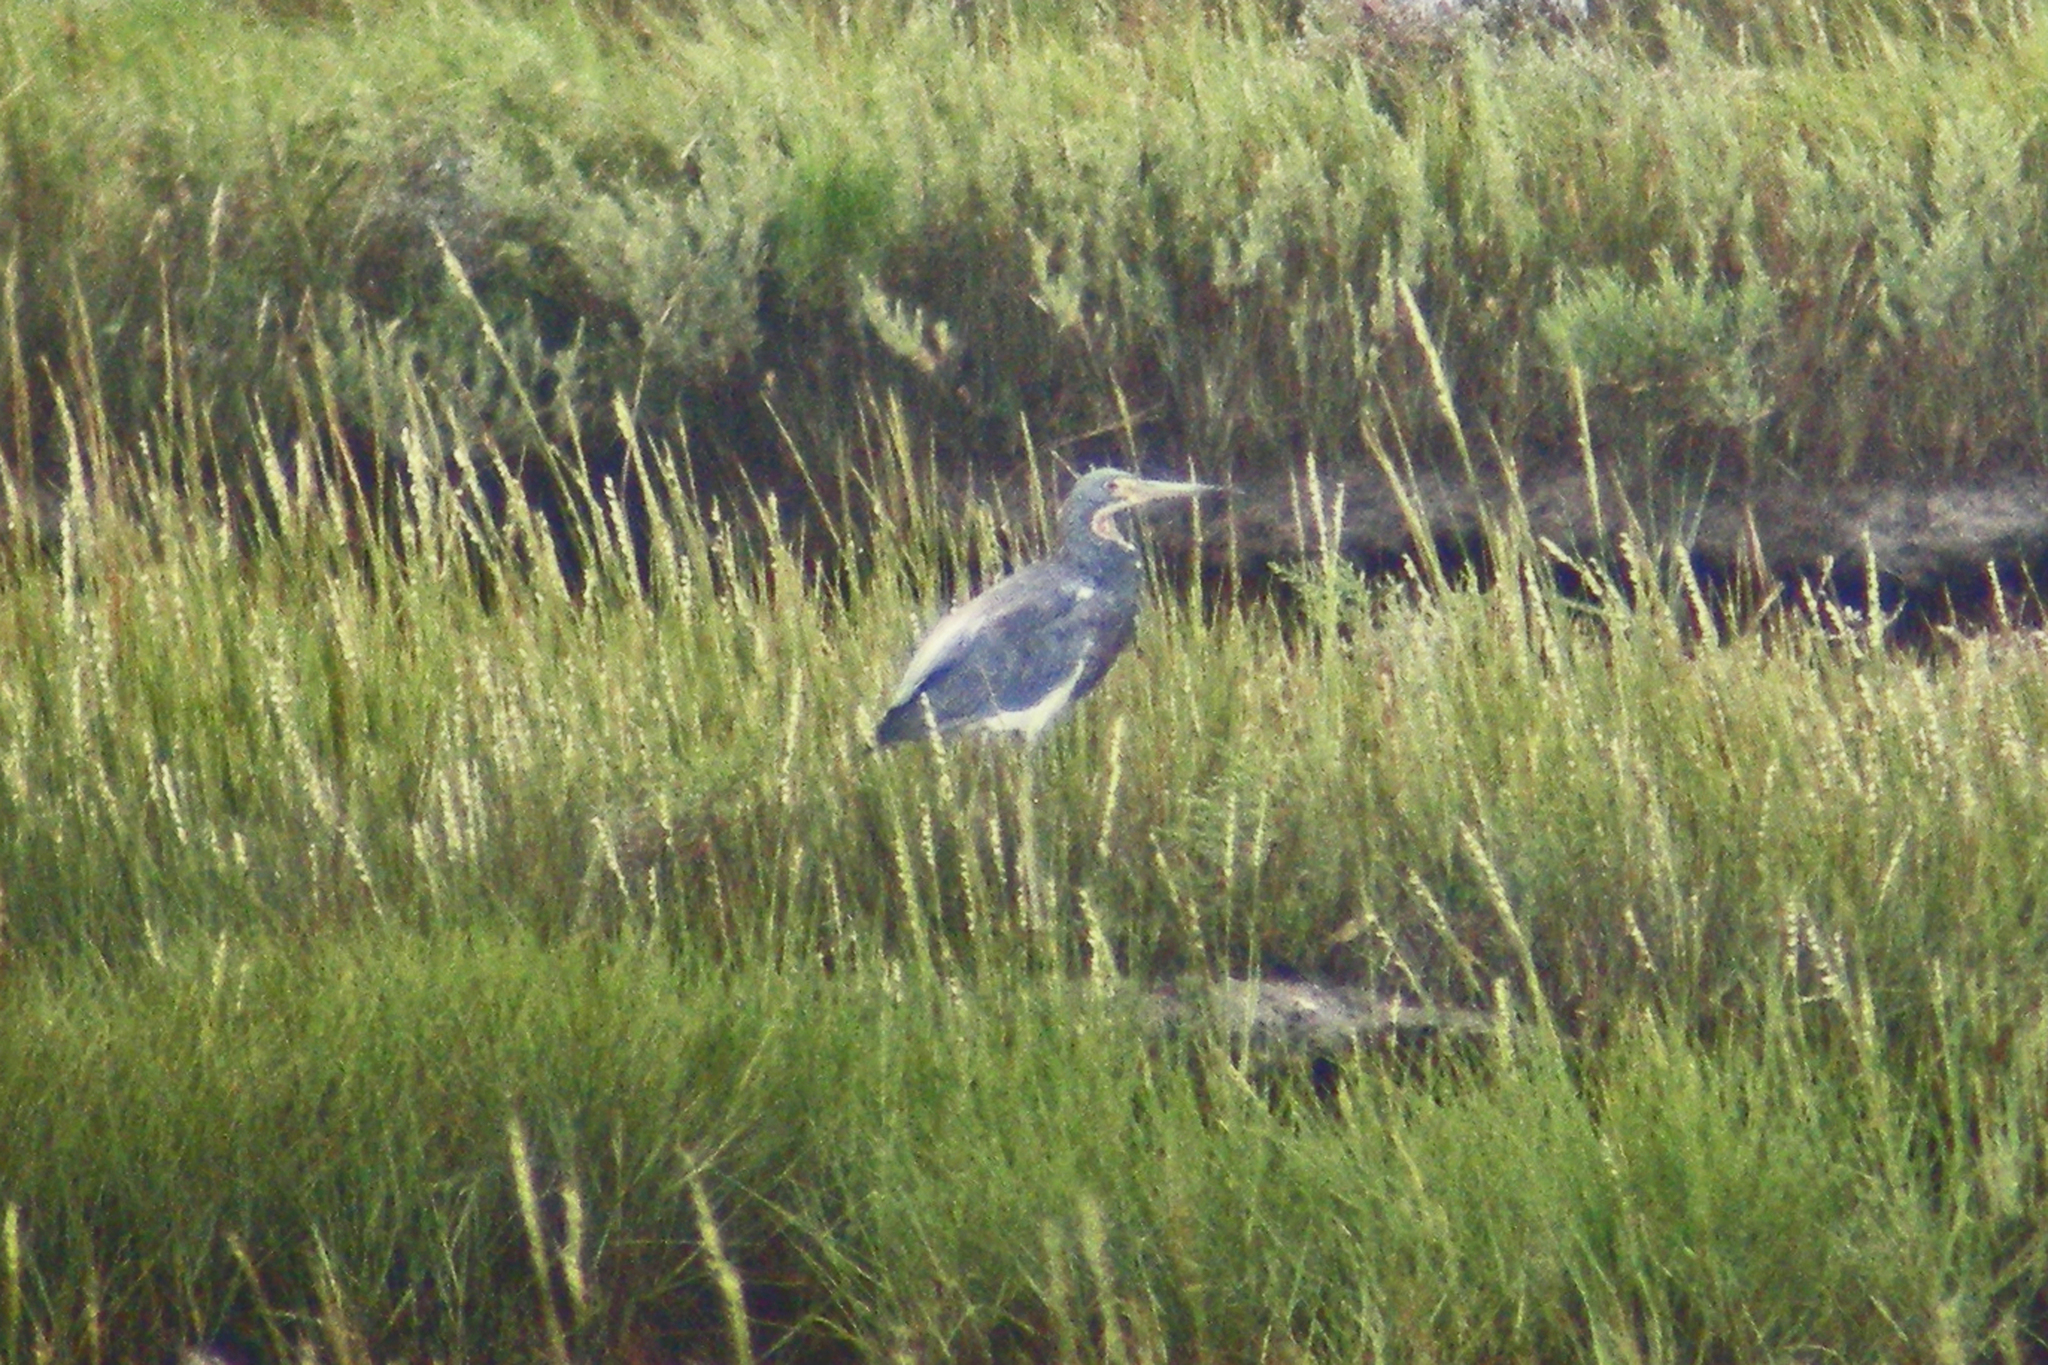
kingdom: Animalia
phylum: Chordata
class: Aves
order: Pelecaniformes
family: Ardeidae
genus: Egretta
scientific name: Egretta tricolor
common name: Tricolored heron
